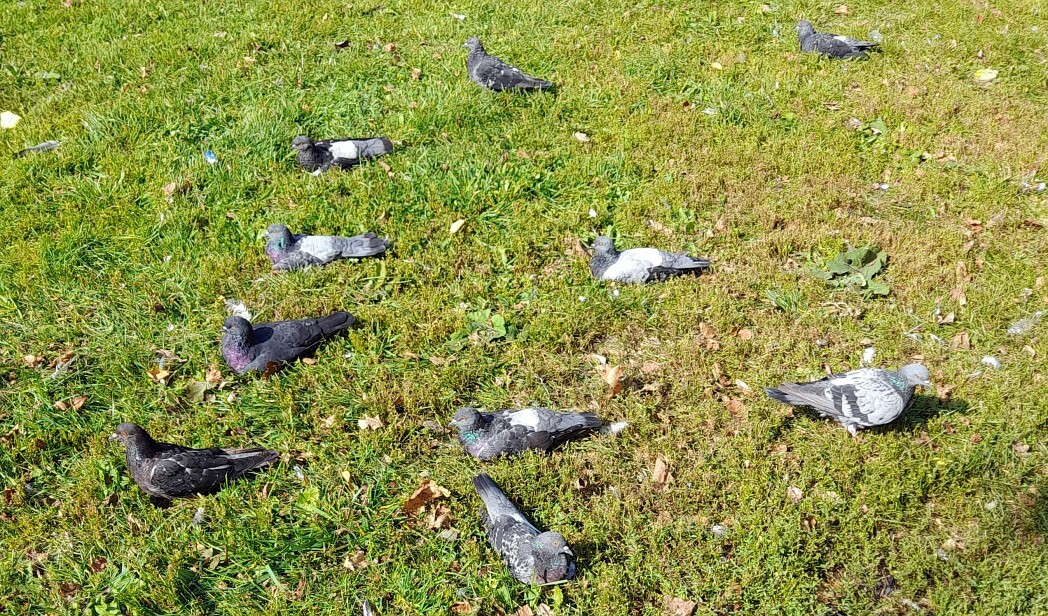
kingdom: Animalia
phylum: Chordata
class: Aves
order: Columbiformes
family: Columbidae
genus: Columba
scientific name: Columba livia
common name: Rock pigeon
